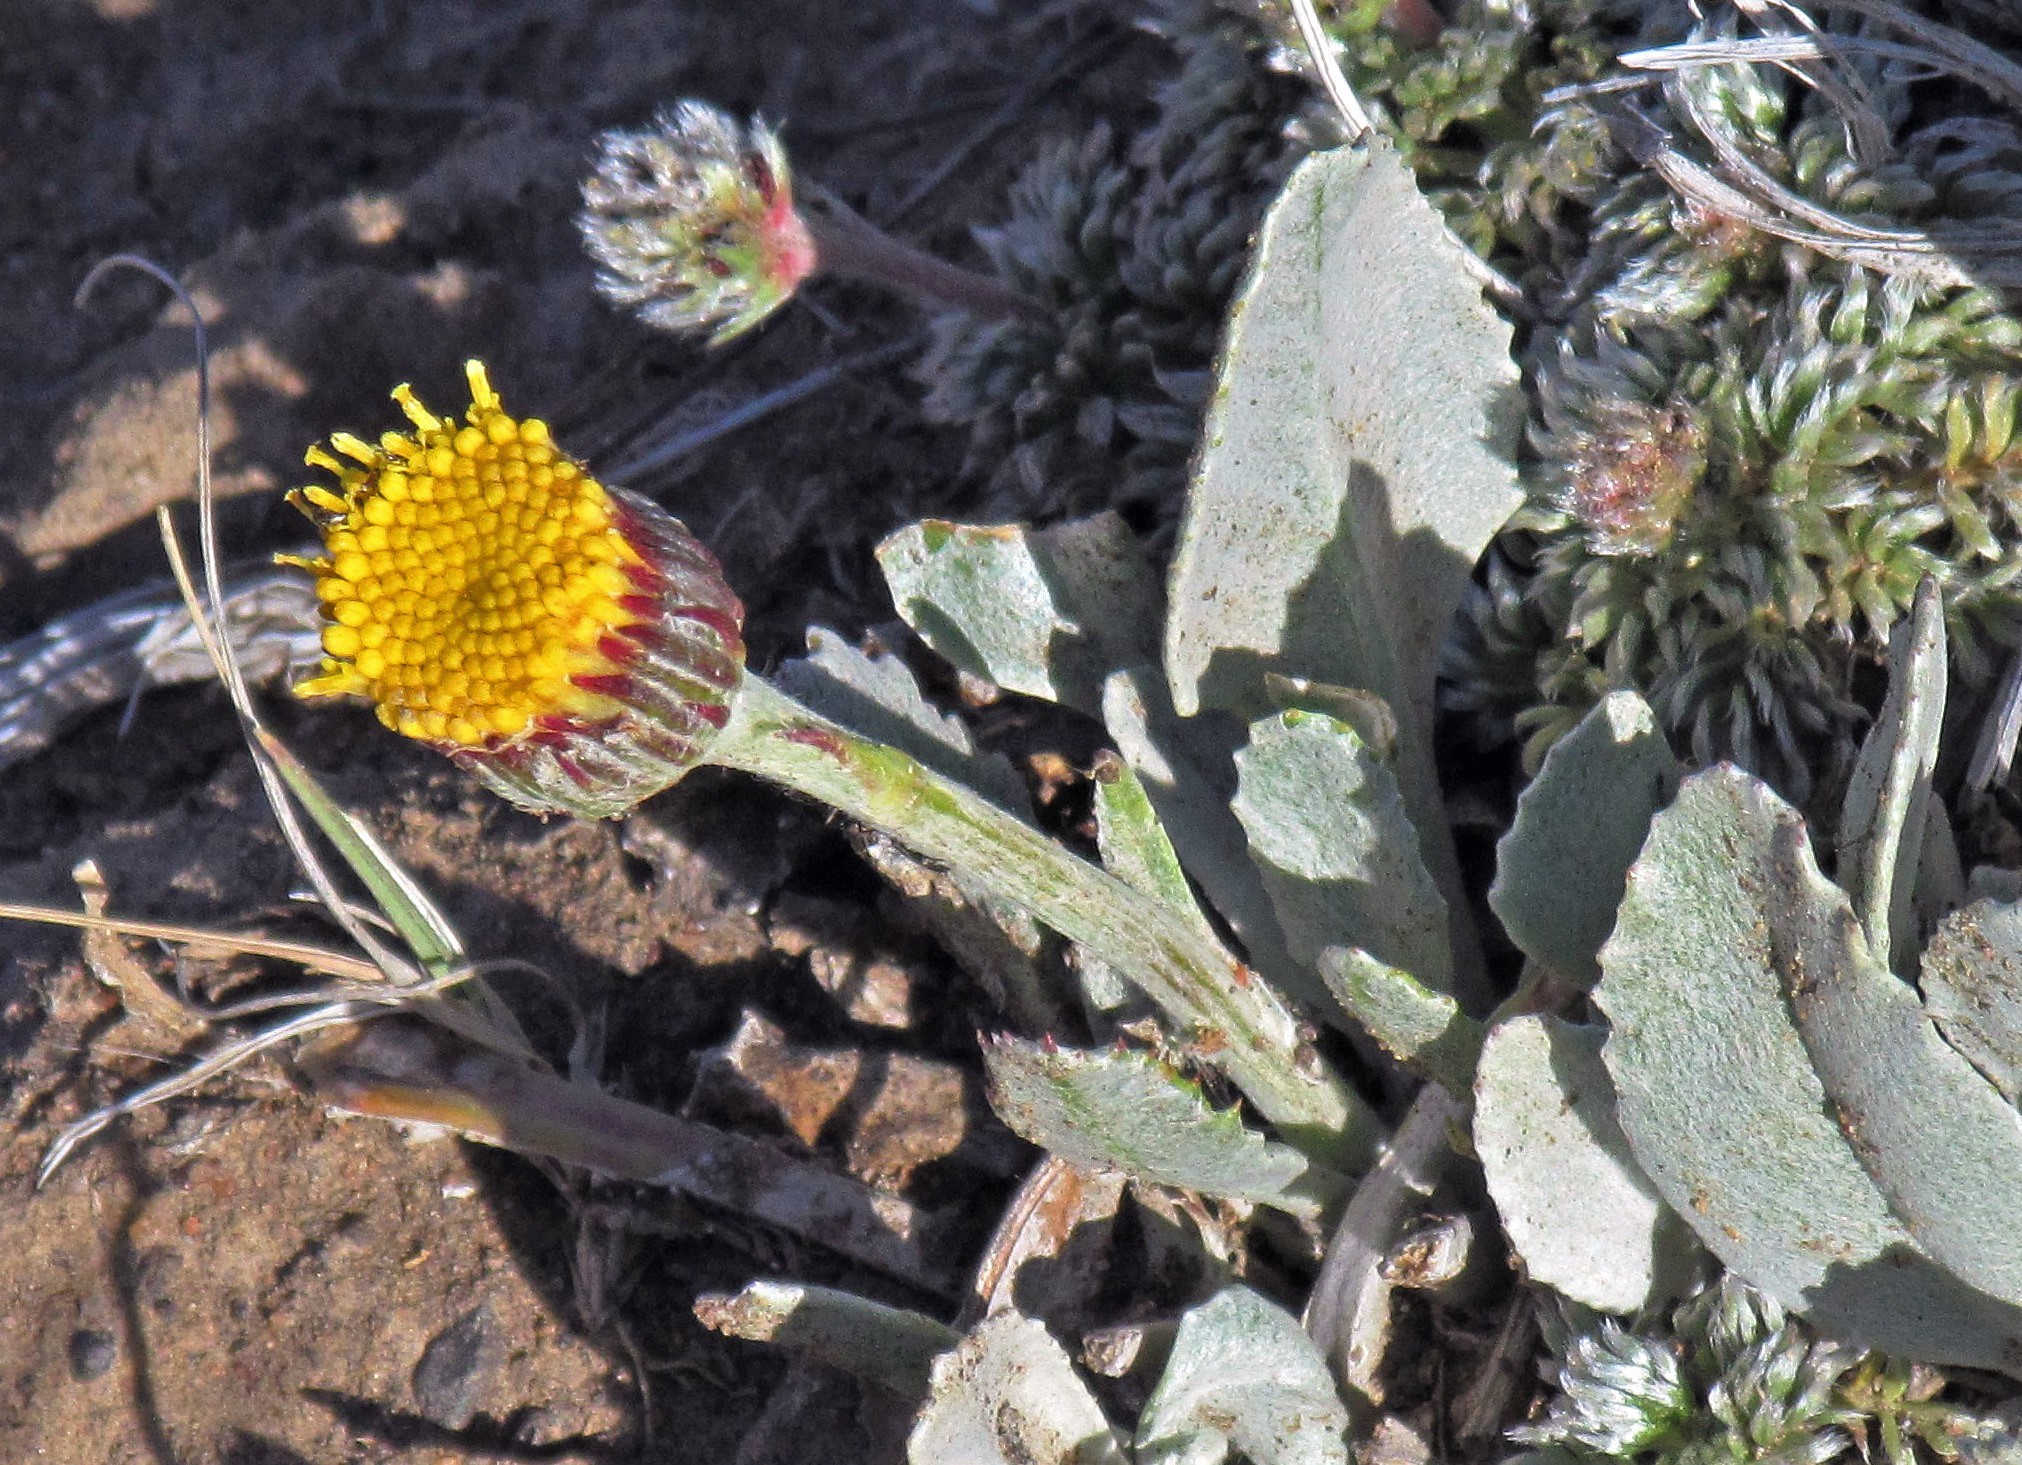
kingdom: Plantae
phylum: Tracheophyta
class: Magnoliopsida
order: Asterales
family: Asteraceae
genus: Senecio
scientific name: Senecio gilliesii
